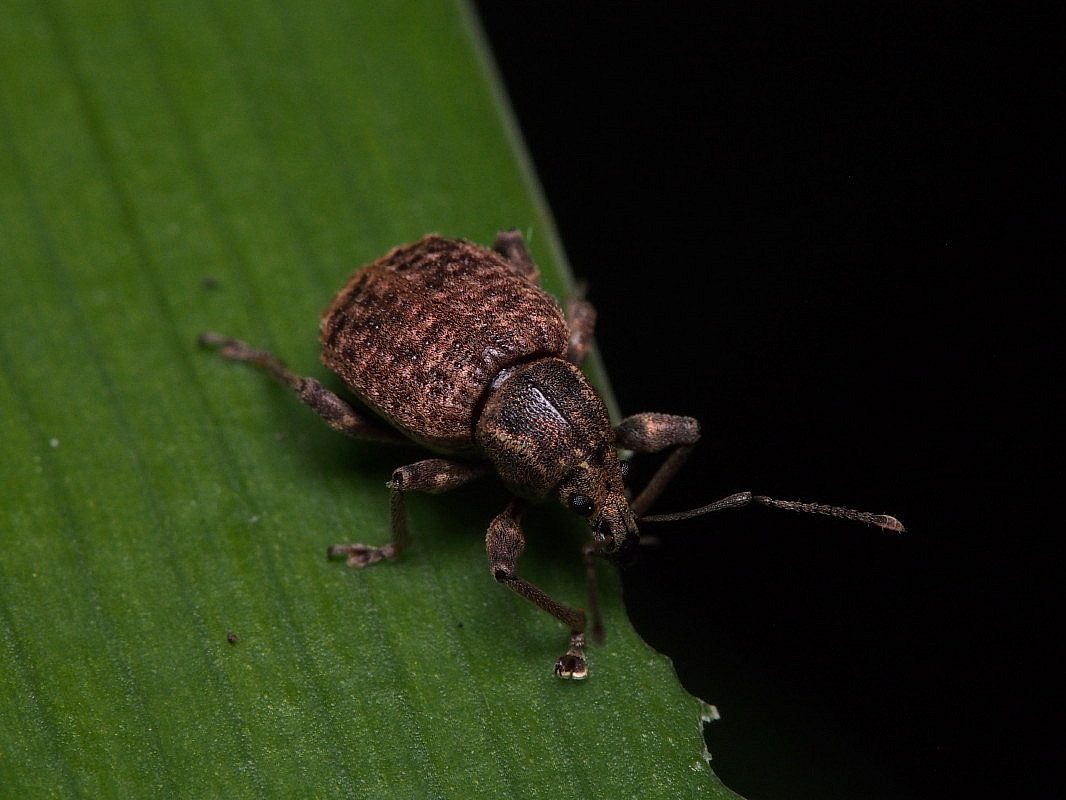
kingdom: Animalia
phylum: Arthropoda
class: Insecta
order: Coleoptera
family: Curculionidae
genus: Phlyctinus
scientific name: Phlyctinus callosus
